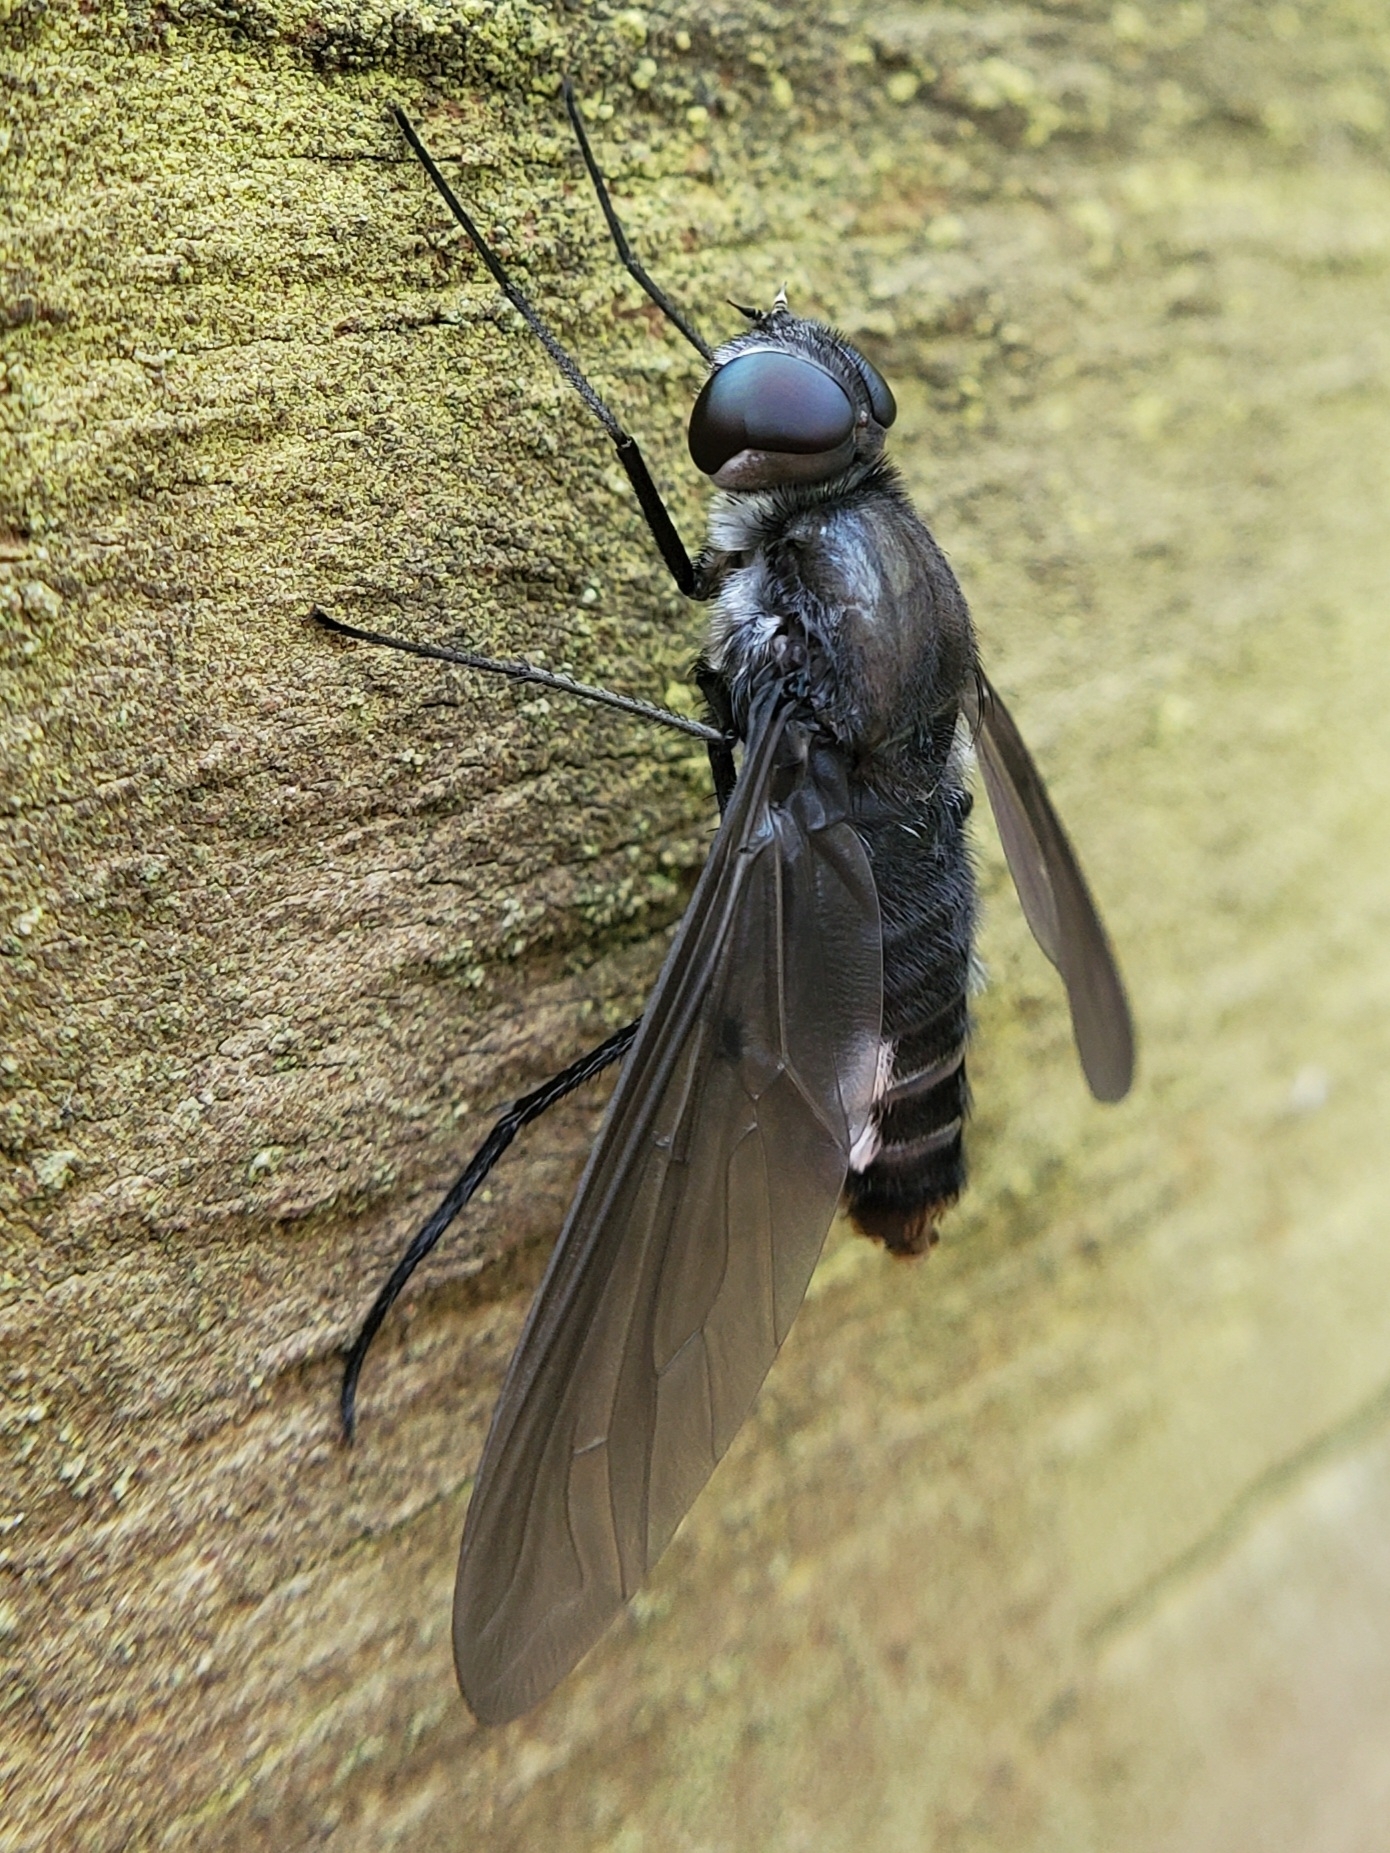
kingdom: Animalia
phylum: Arthropoda
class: Insecta
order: Diptera
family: Bombyliidae
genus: Brachyanax
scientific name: Brachyanax aterrimus
